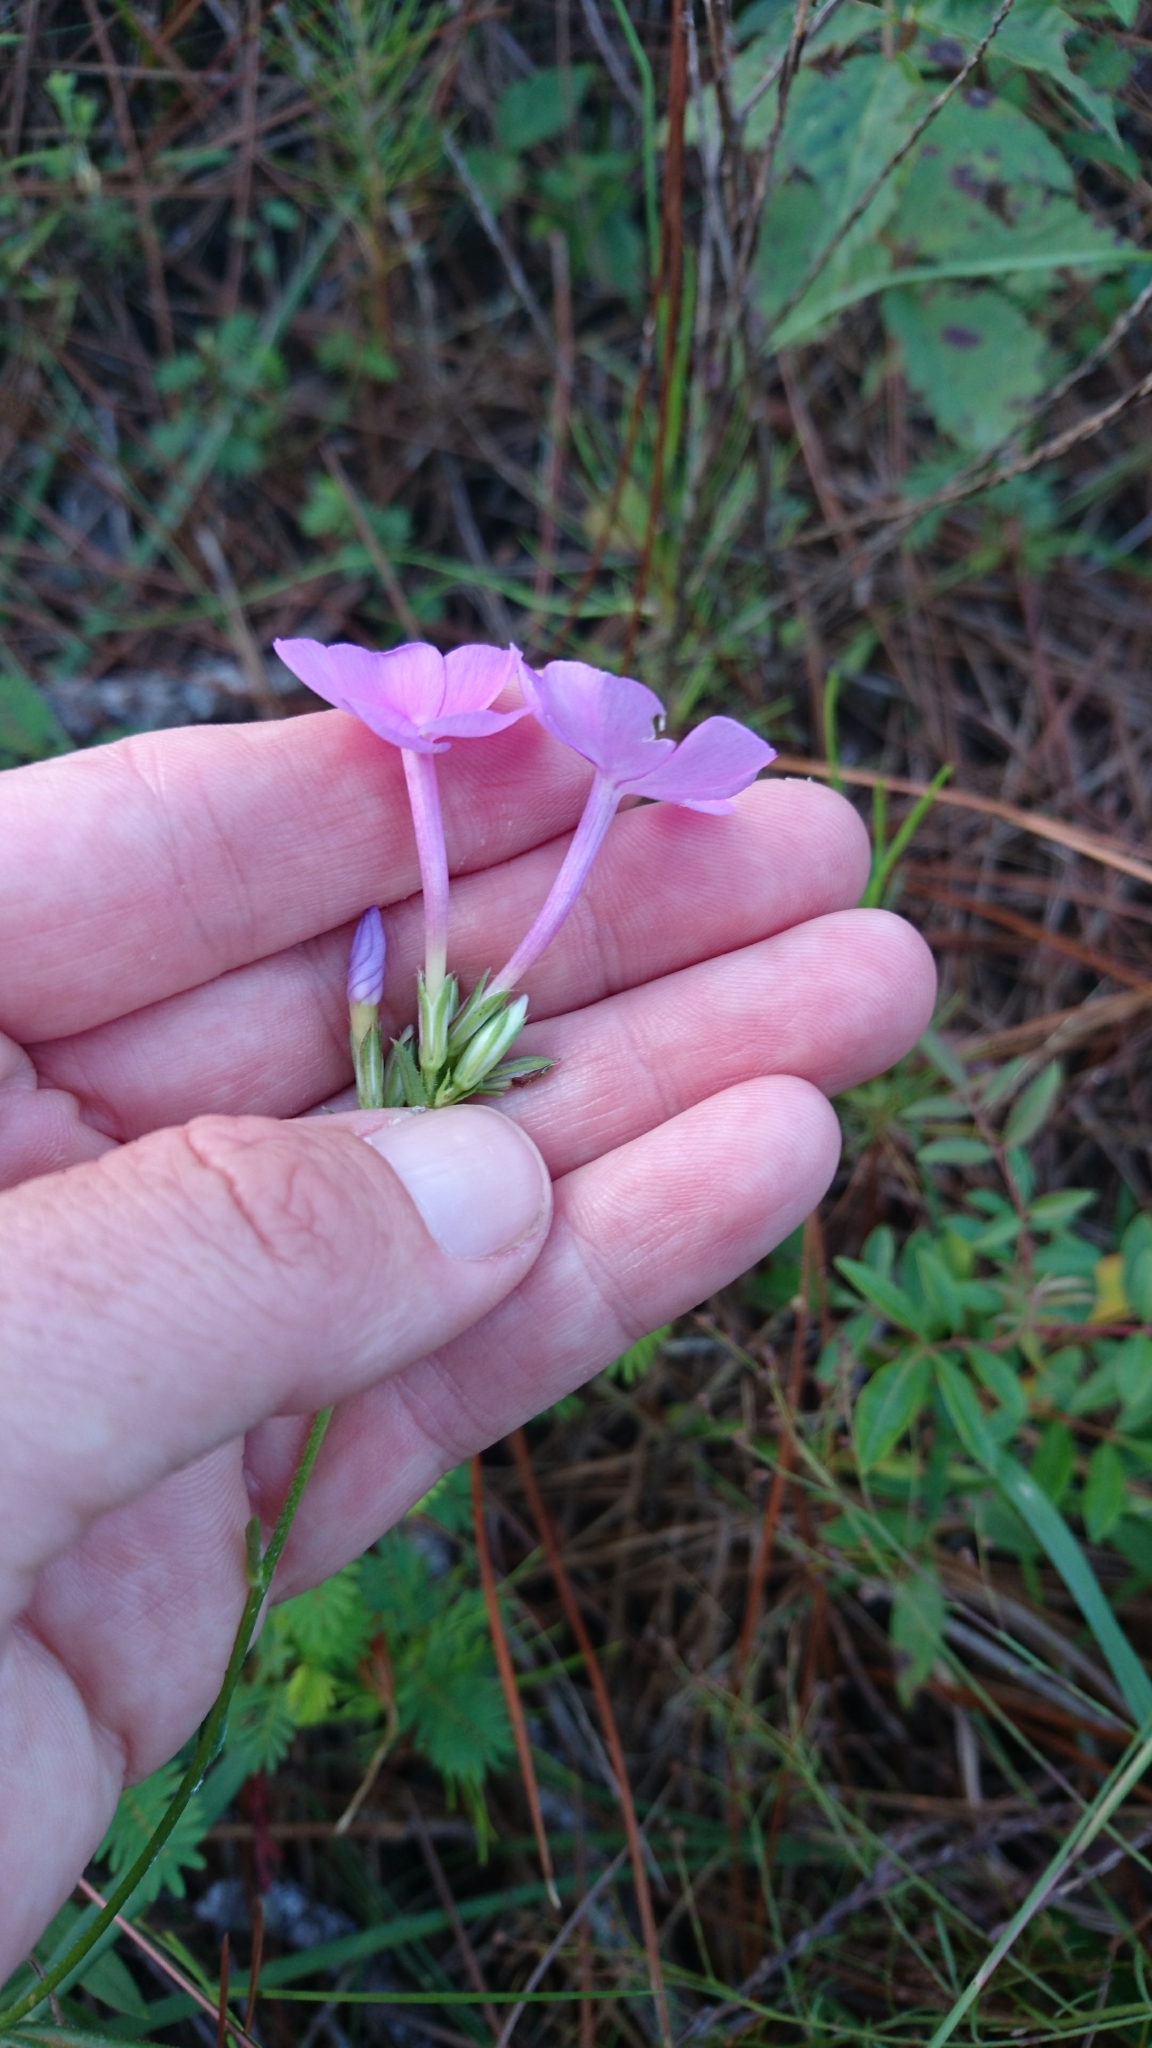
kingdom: Plantae
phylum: Tracheophyta
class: Magnoliopsida
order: Ericales
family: Polemoniaceae
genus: Phlox
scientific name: Phlox carolina
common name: Thick-leaf phlox
